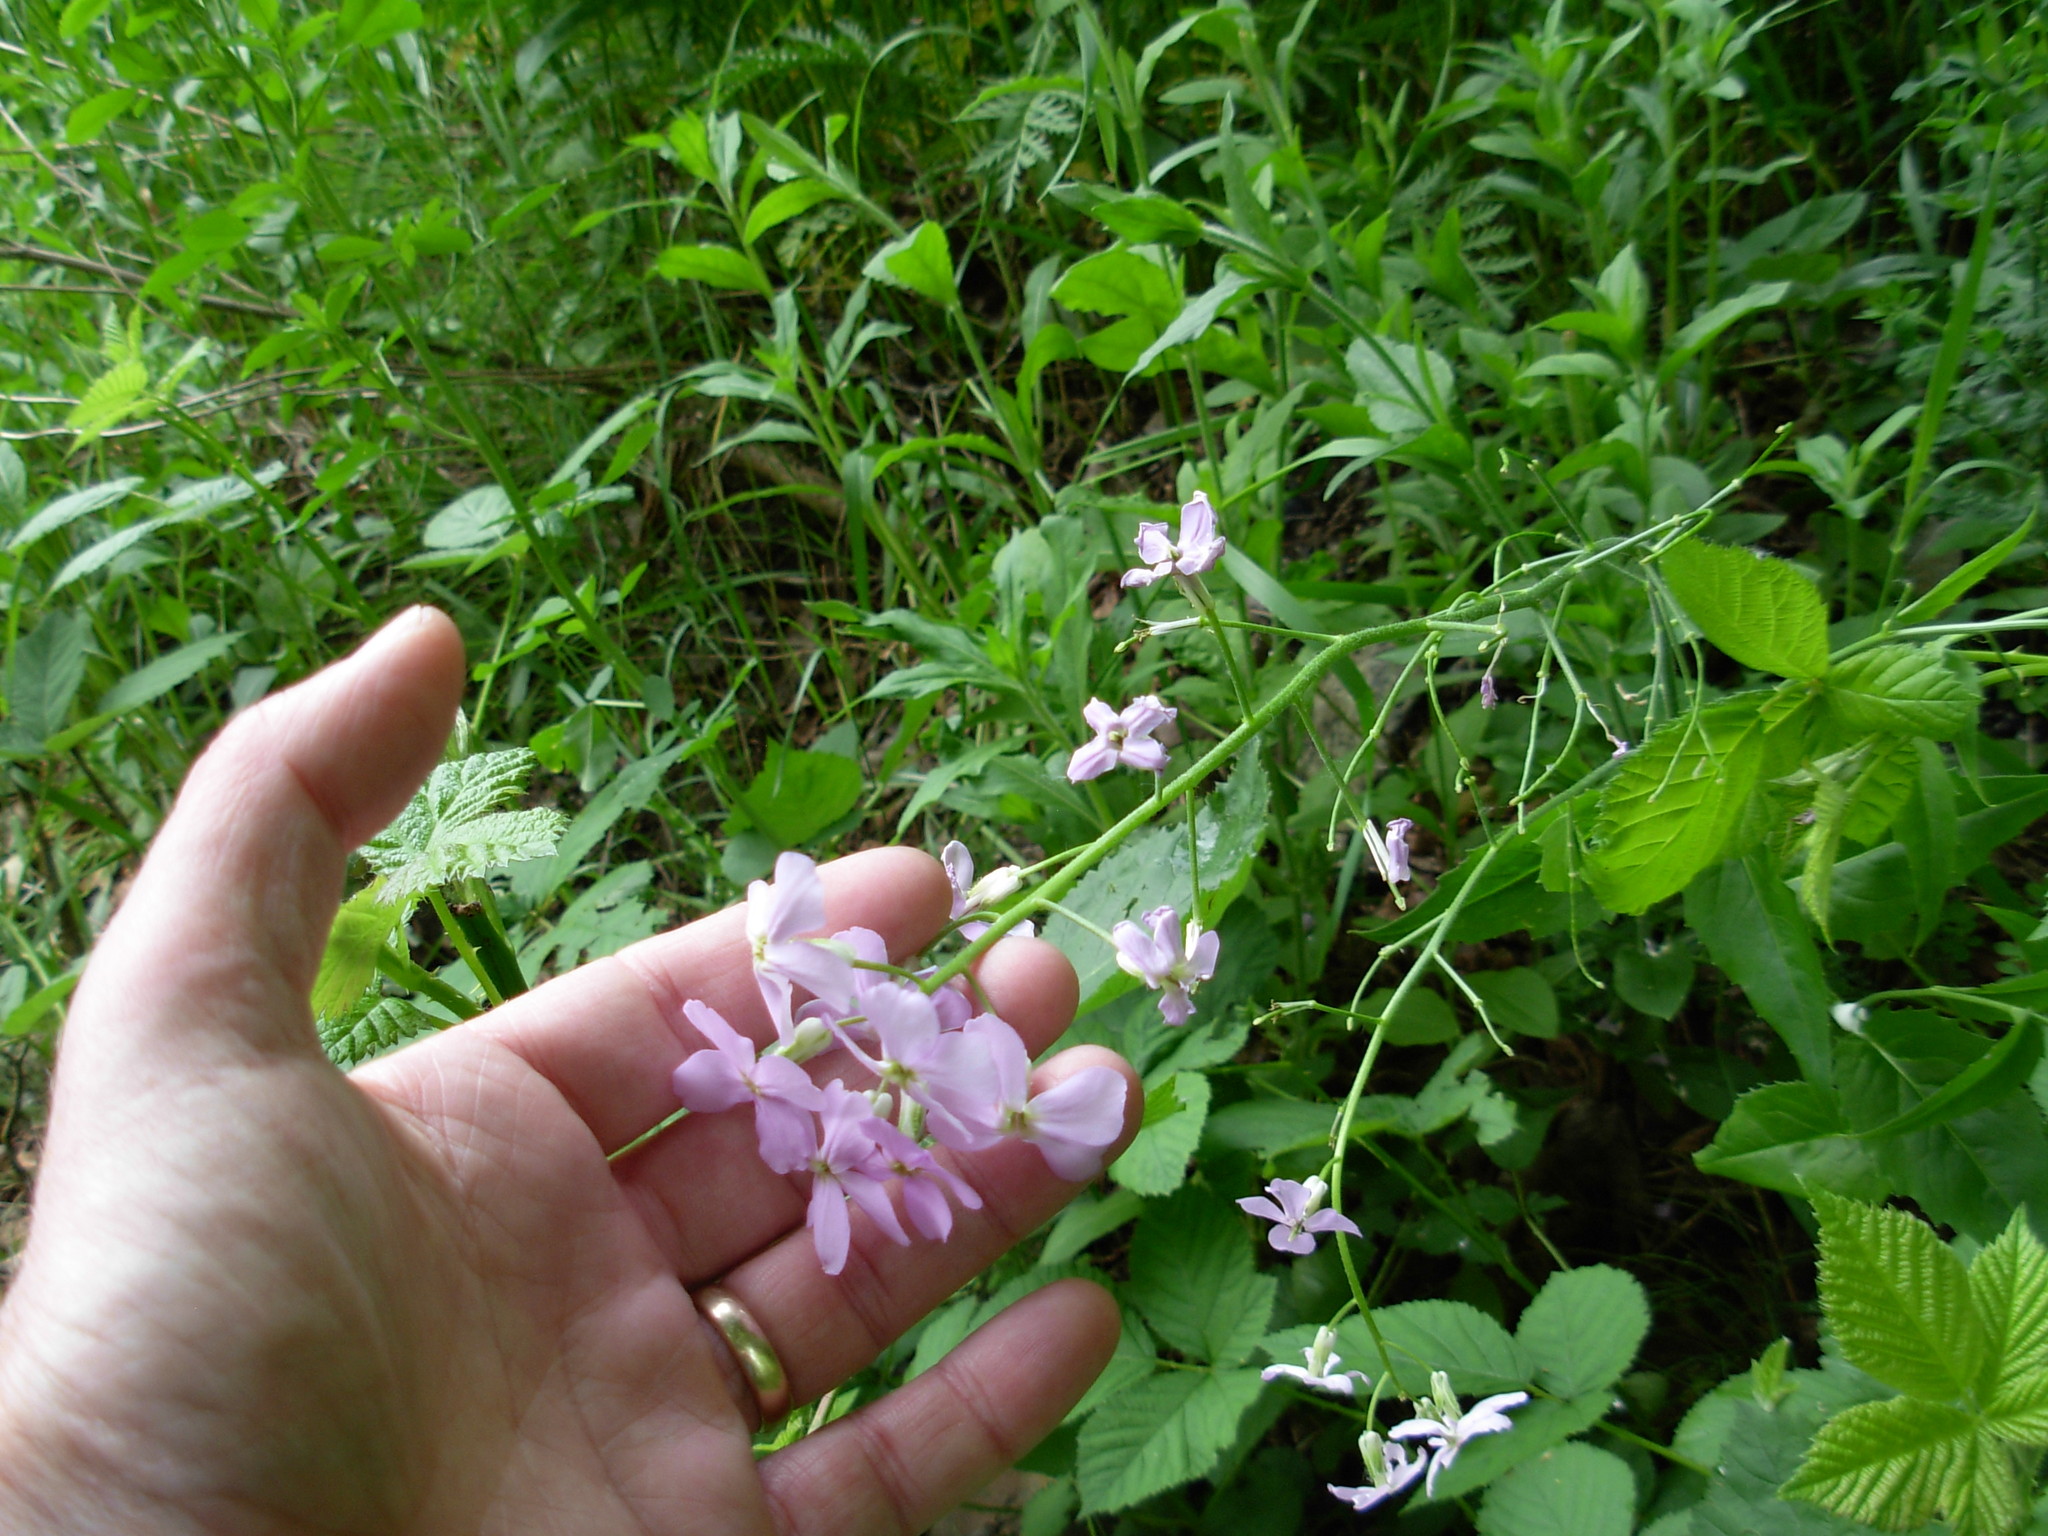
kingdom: Plantae
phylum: Tracheophyta
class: Magnoliopsida
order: Brassicales
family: Brassicaceae
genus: Hesperis
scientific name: Hesperis matronalis
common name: Dame's-violet
